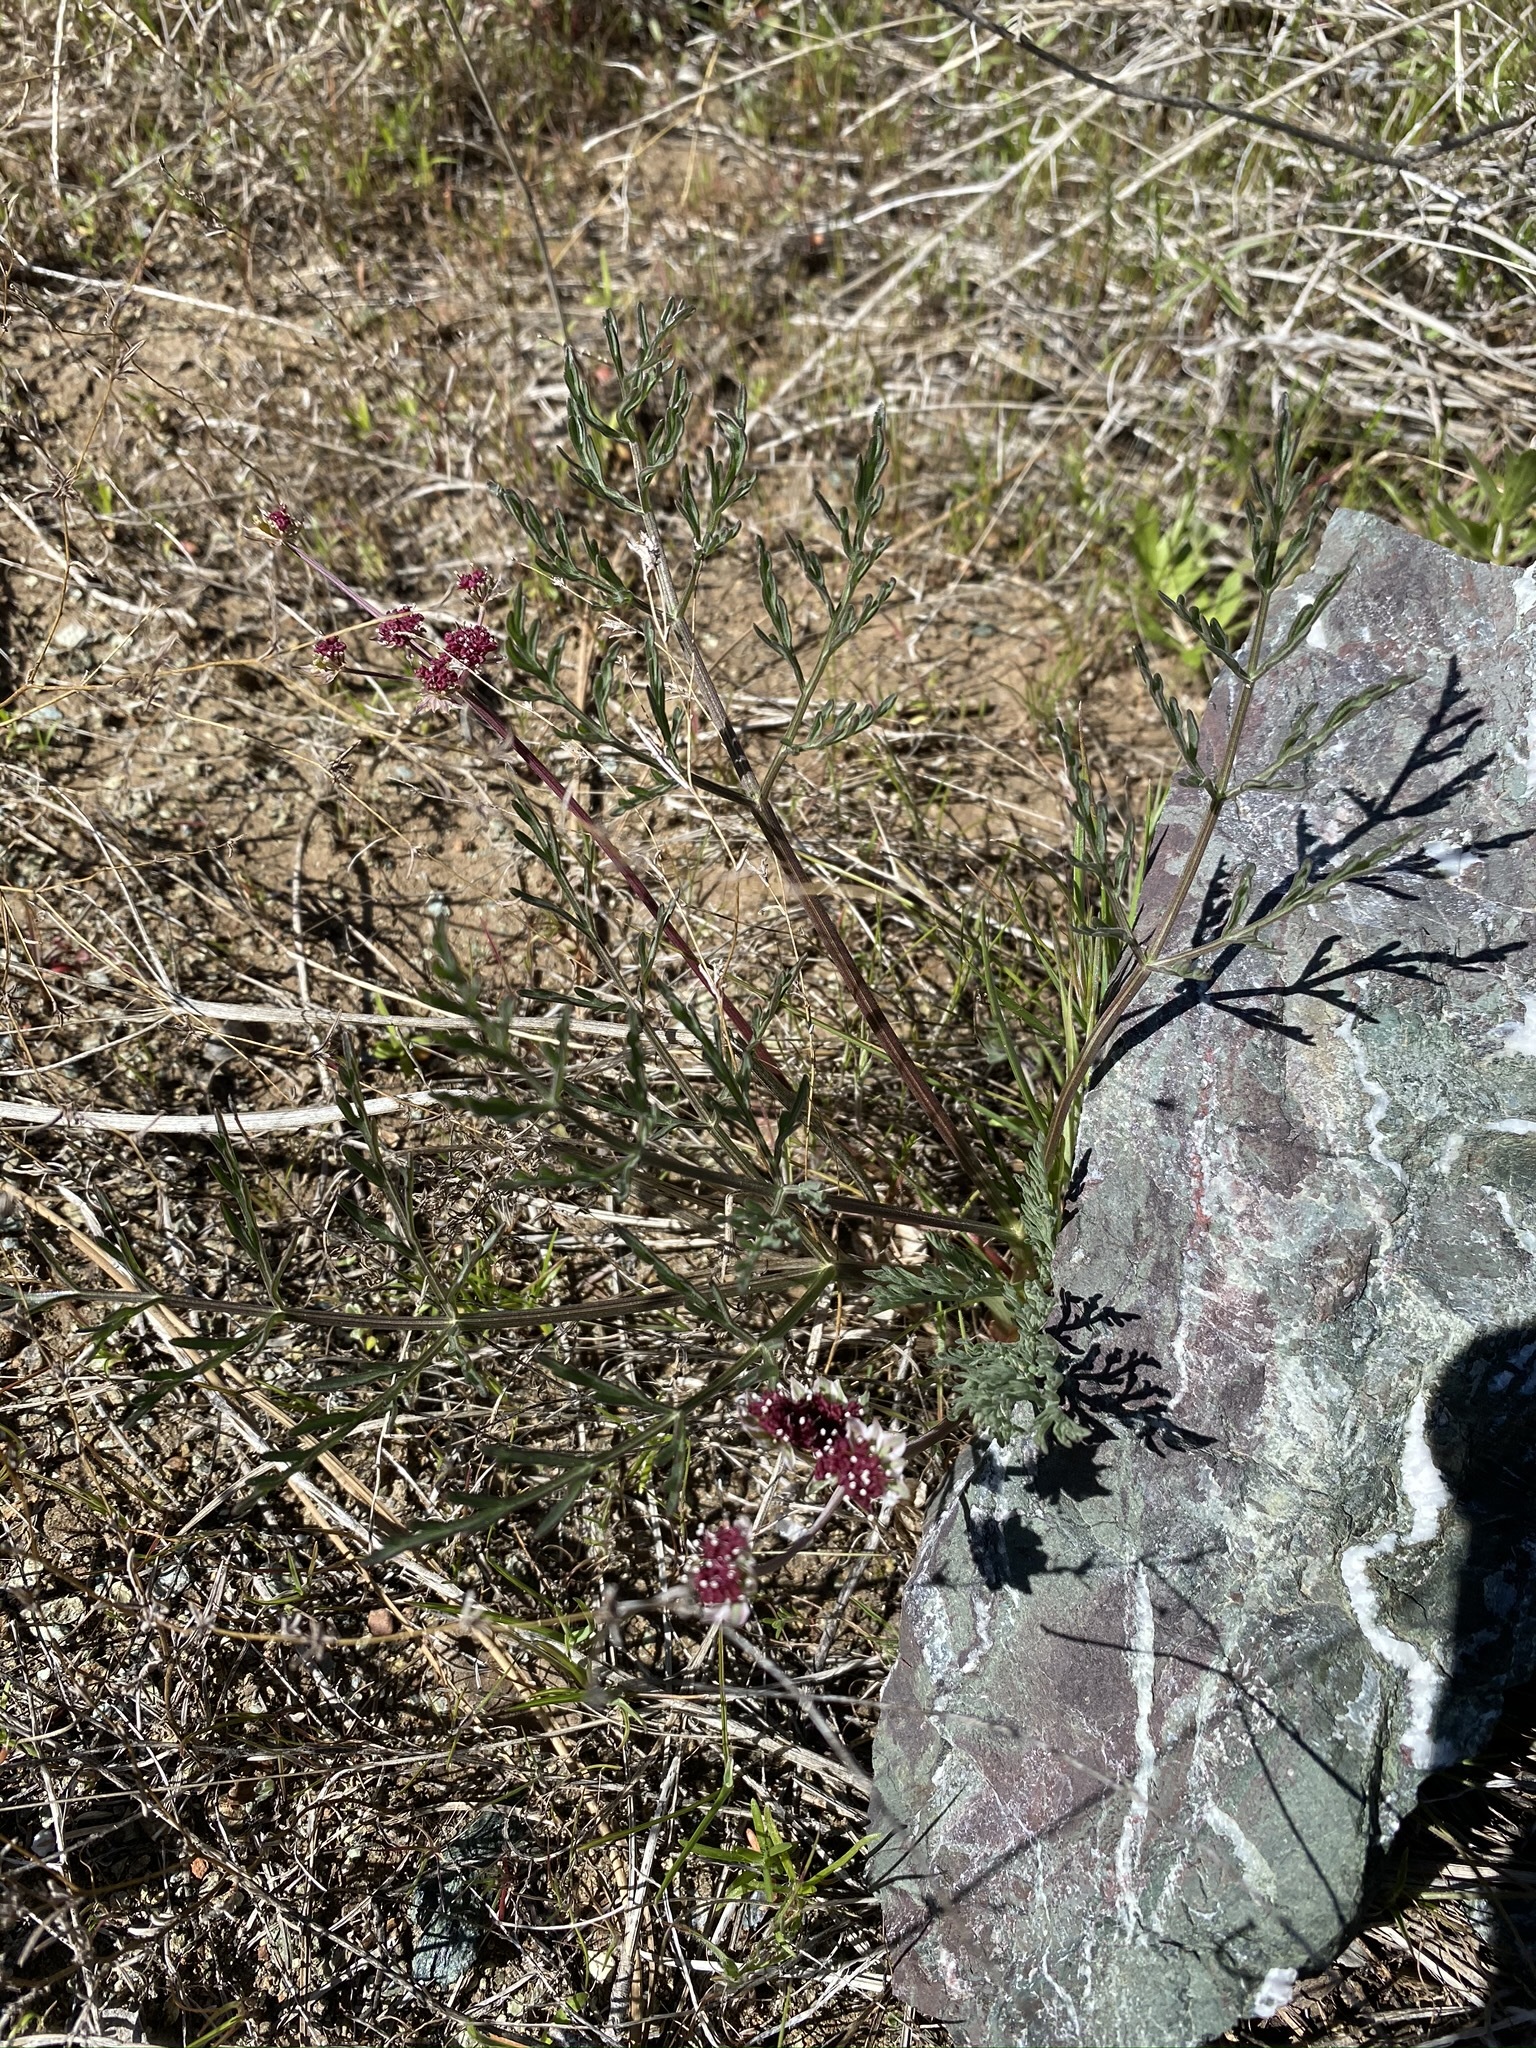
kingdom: Plantae
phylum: Tracheophyta
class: Magnoliopsida
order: Apiales
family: Apiaceae
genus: Lomatium
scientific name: Lomatium hooveri
